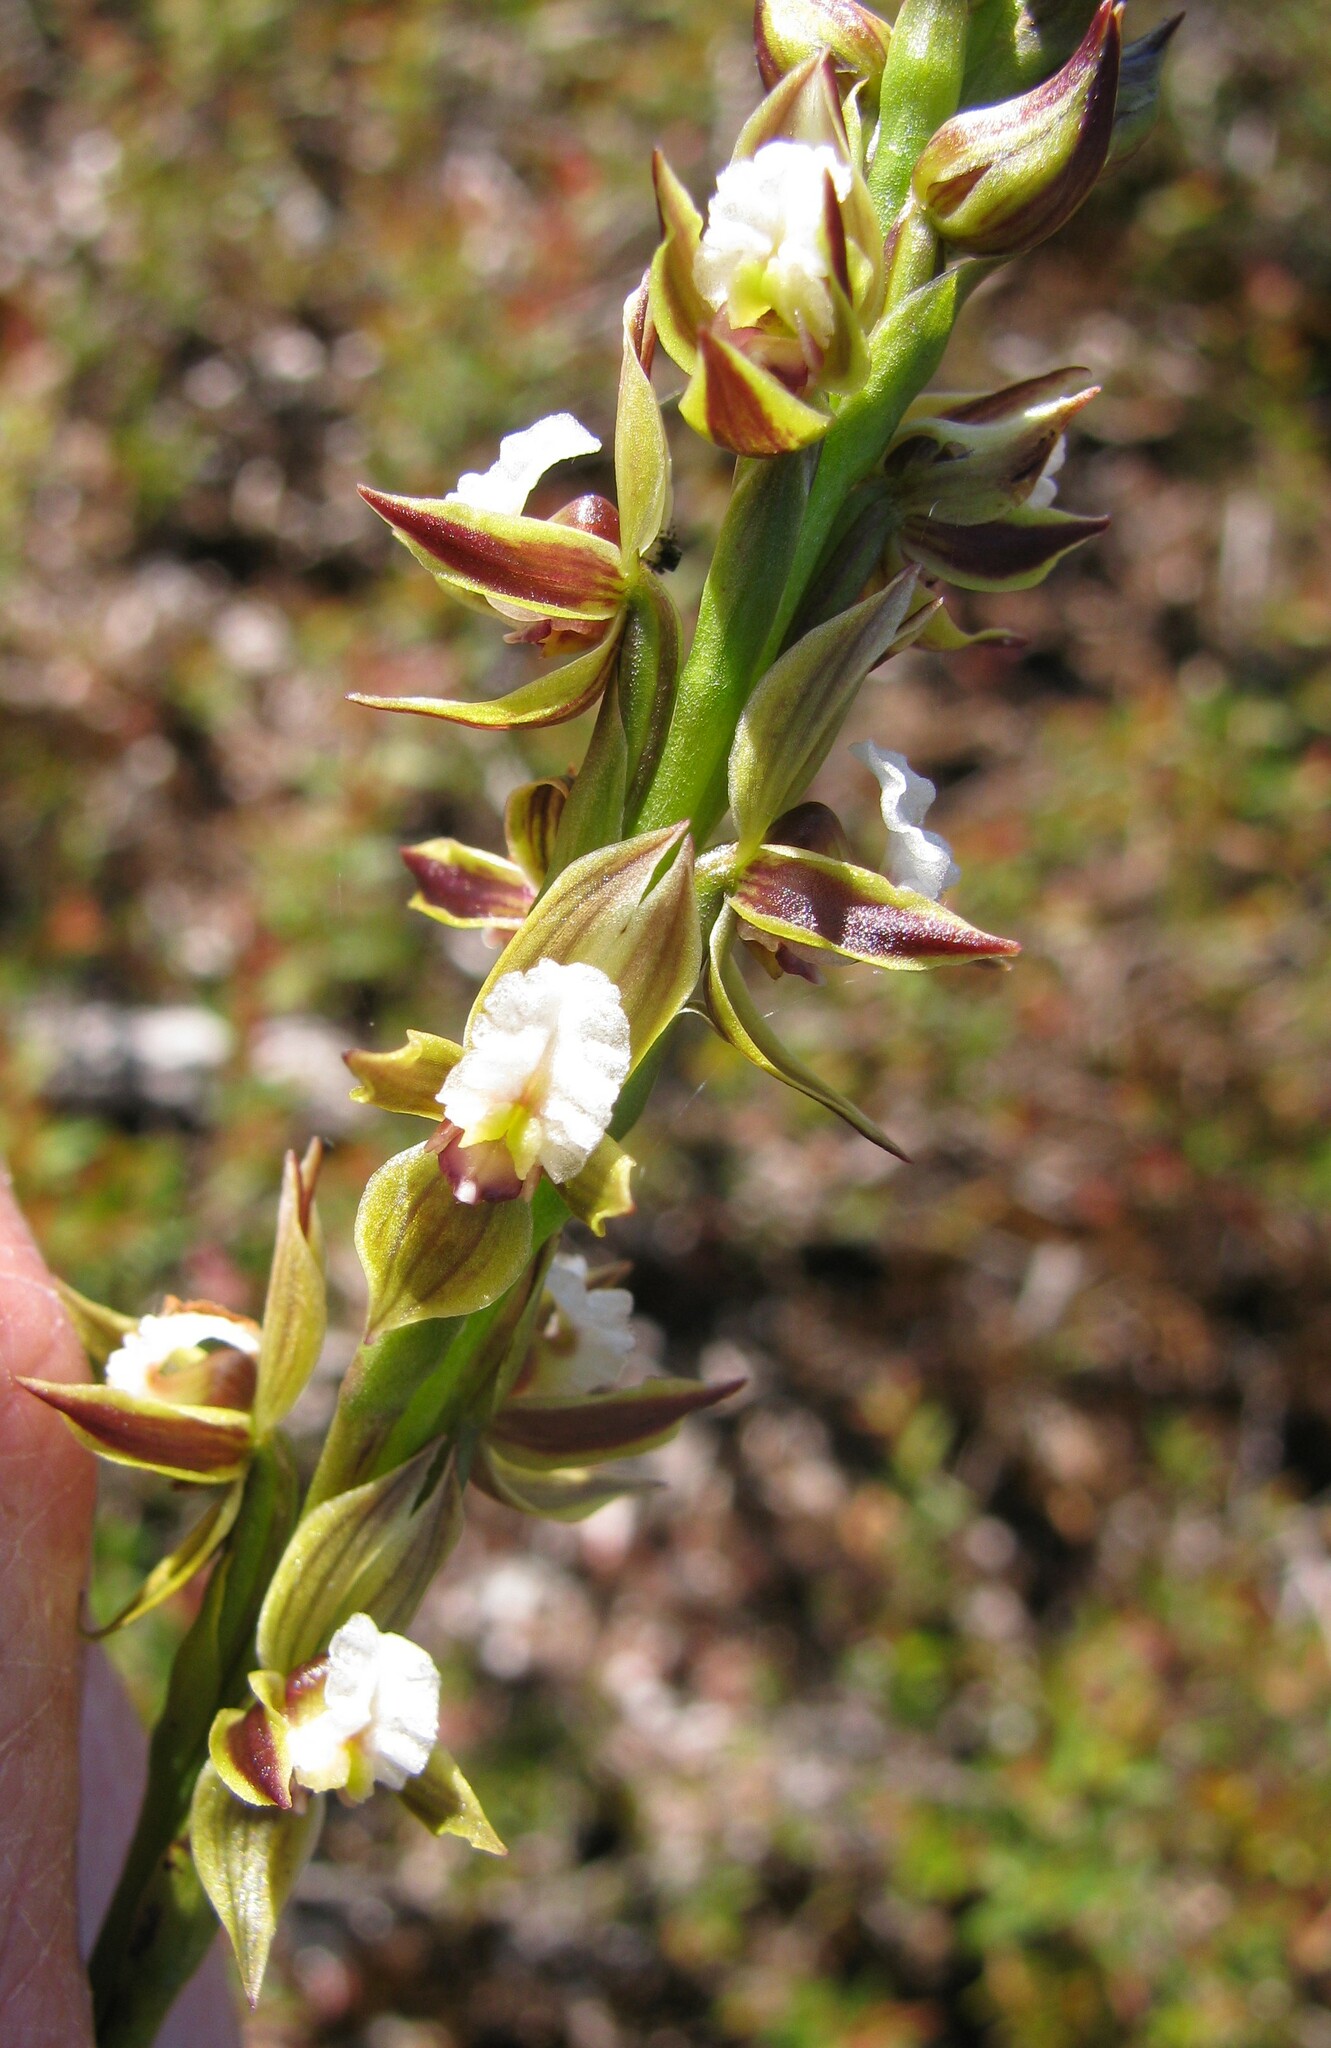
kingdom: Plantae
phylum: Tracheophyta
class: Liliopsida
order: Asparagales
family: Orchidaceae
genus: Prasophyllum
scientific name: Prasophyllum australe
